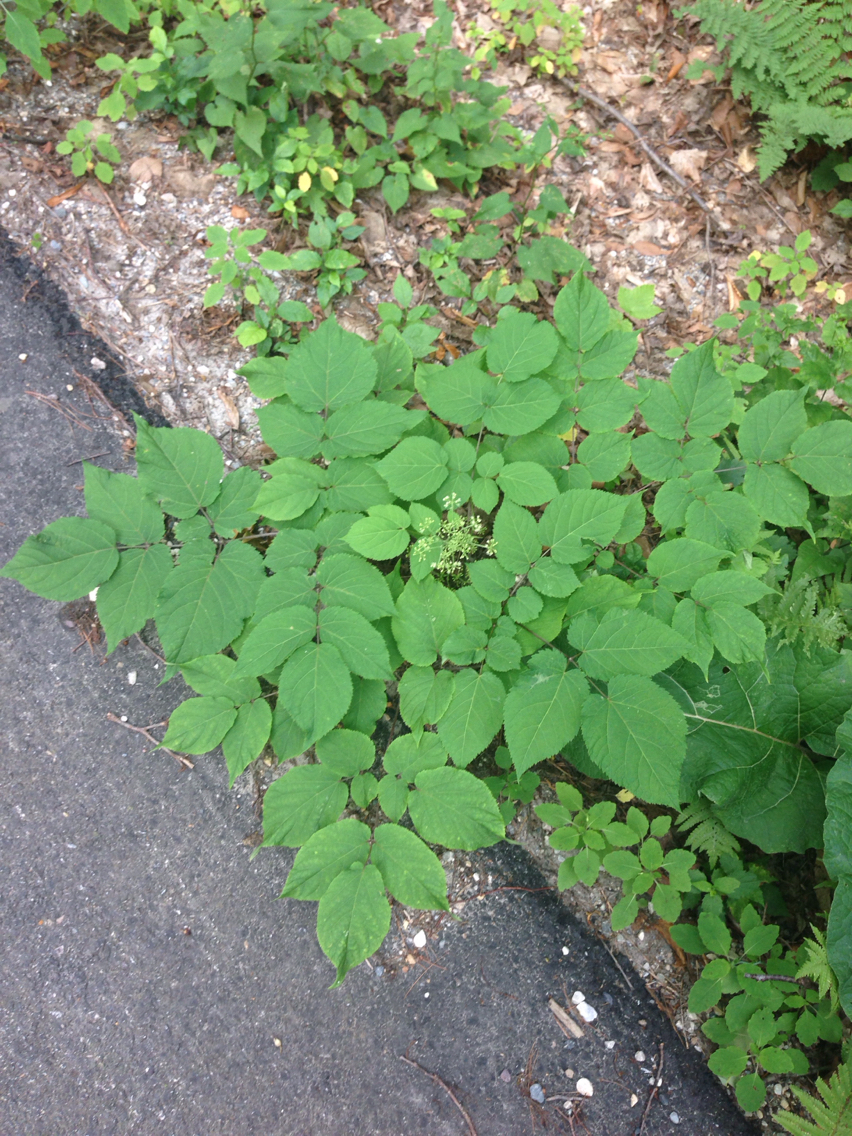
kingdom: Plantae
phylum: Tracheophyta
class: Magnoliopsida
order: Apiales
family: Araliaceae
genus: Aralia
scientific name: Aralia racemosa
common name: American-spikenard
